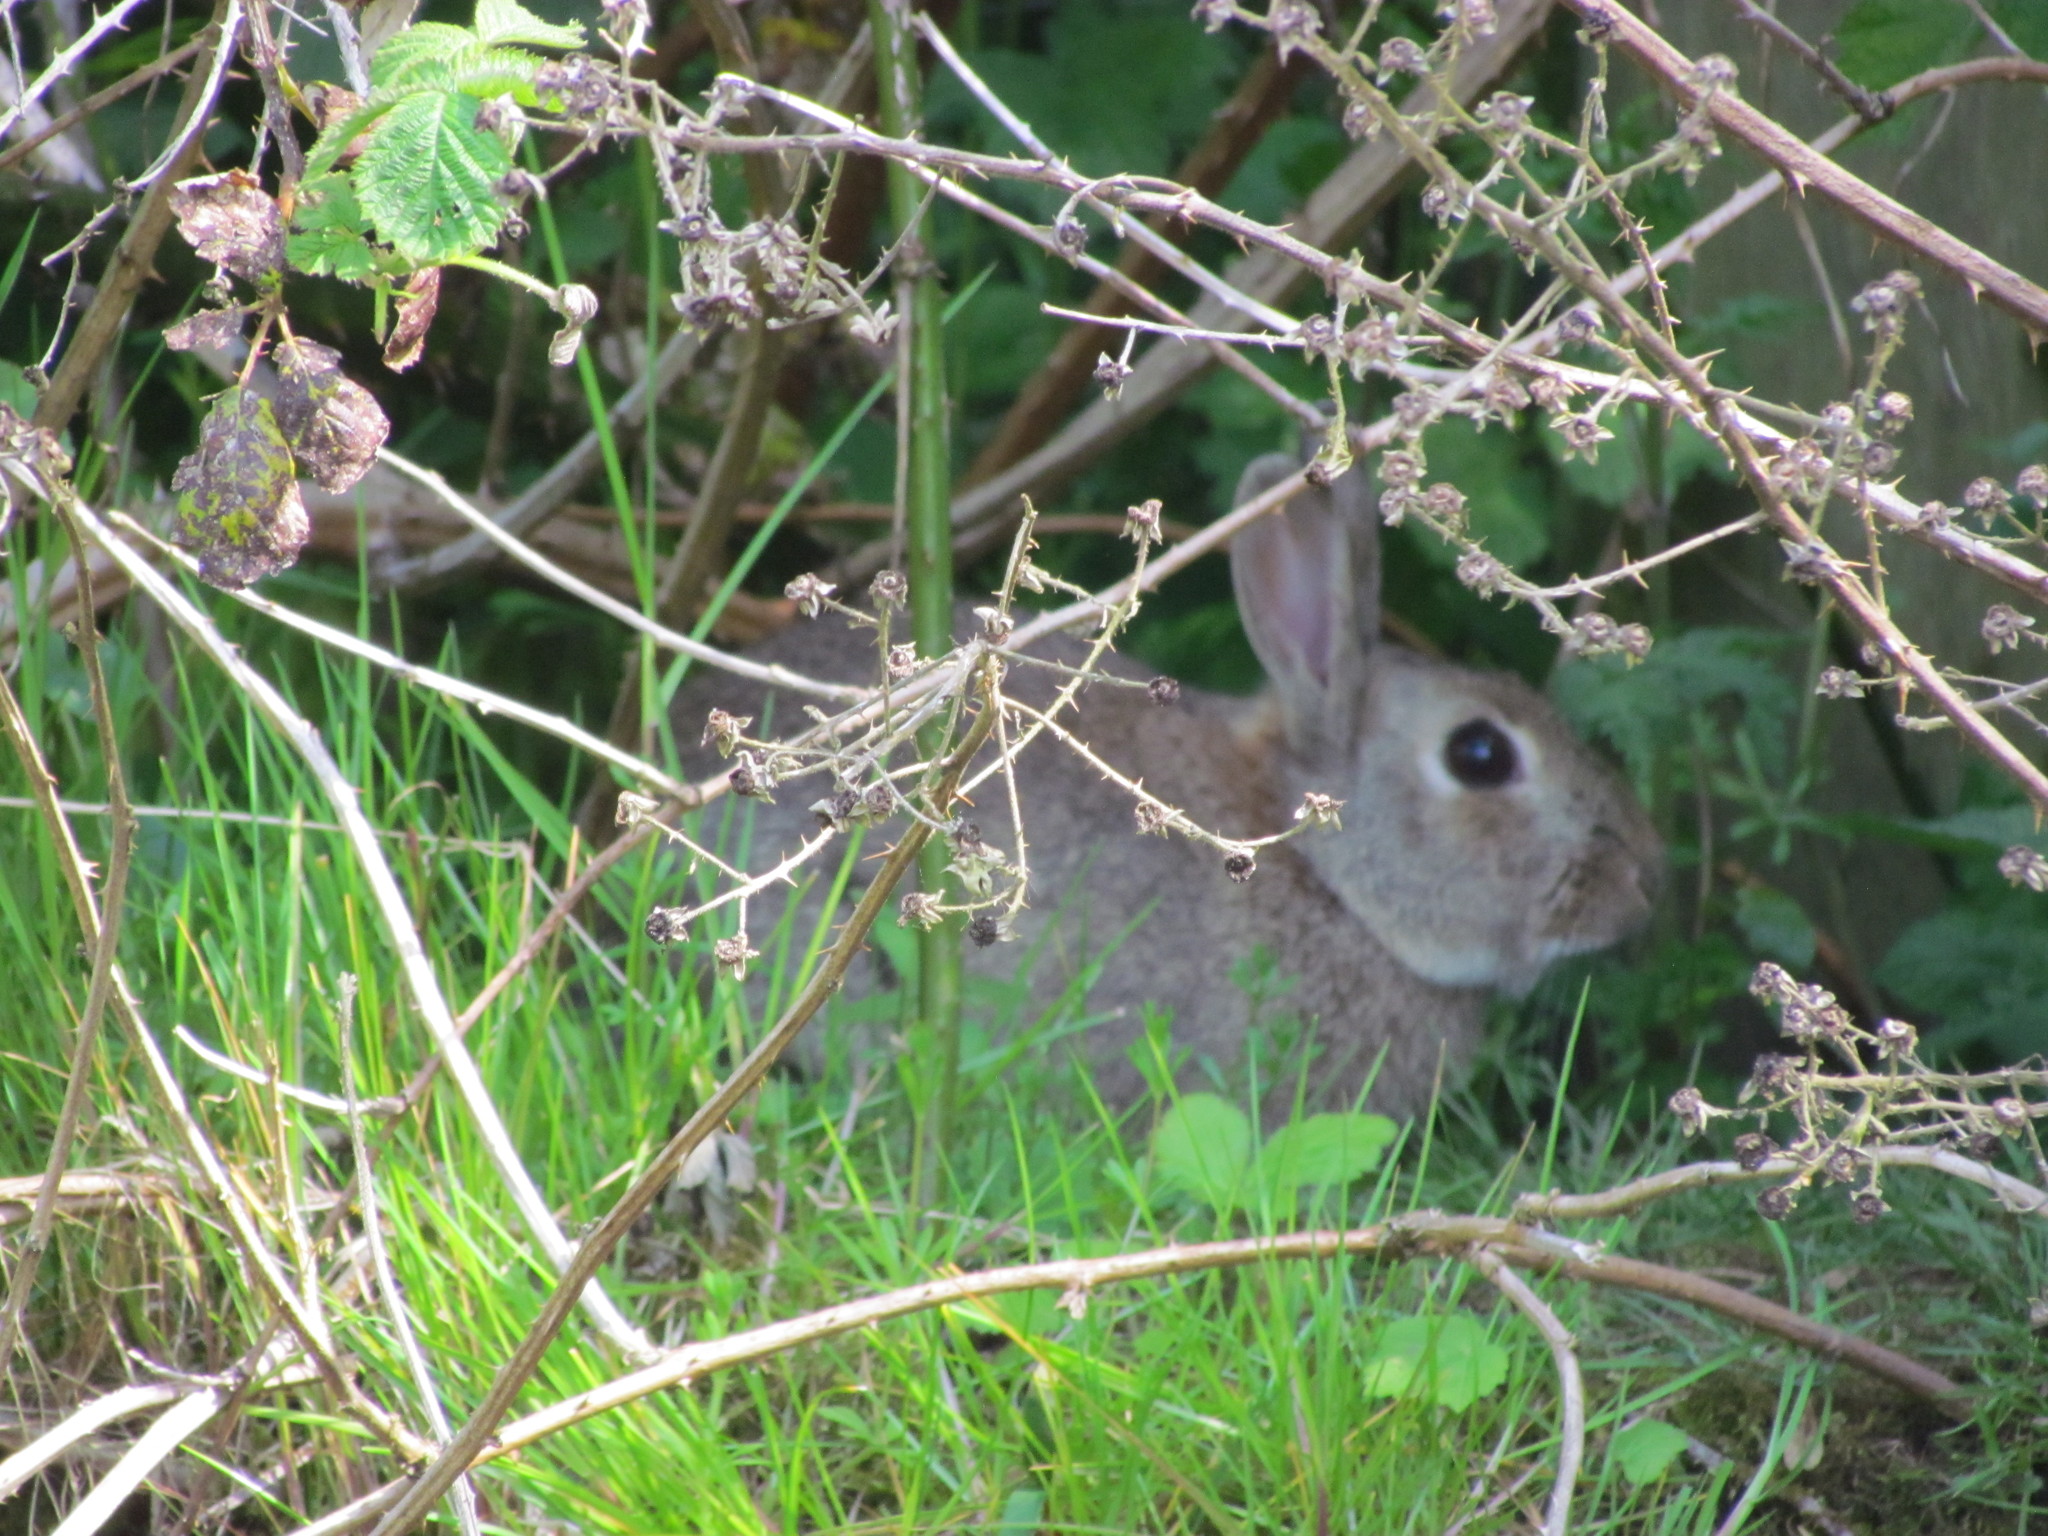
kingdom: Animalia
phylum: Chordata
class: Mammalia
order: Lagomorpha
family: Leporidae
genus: Oryctolagus
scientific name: Oryctolagus cuniculus
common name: European rabbit
